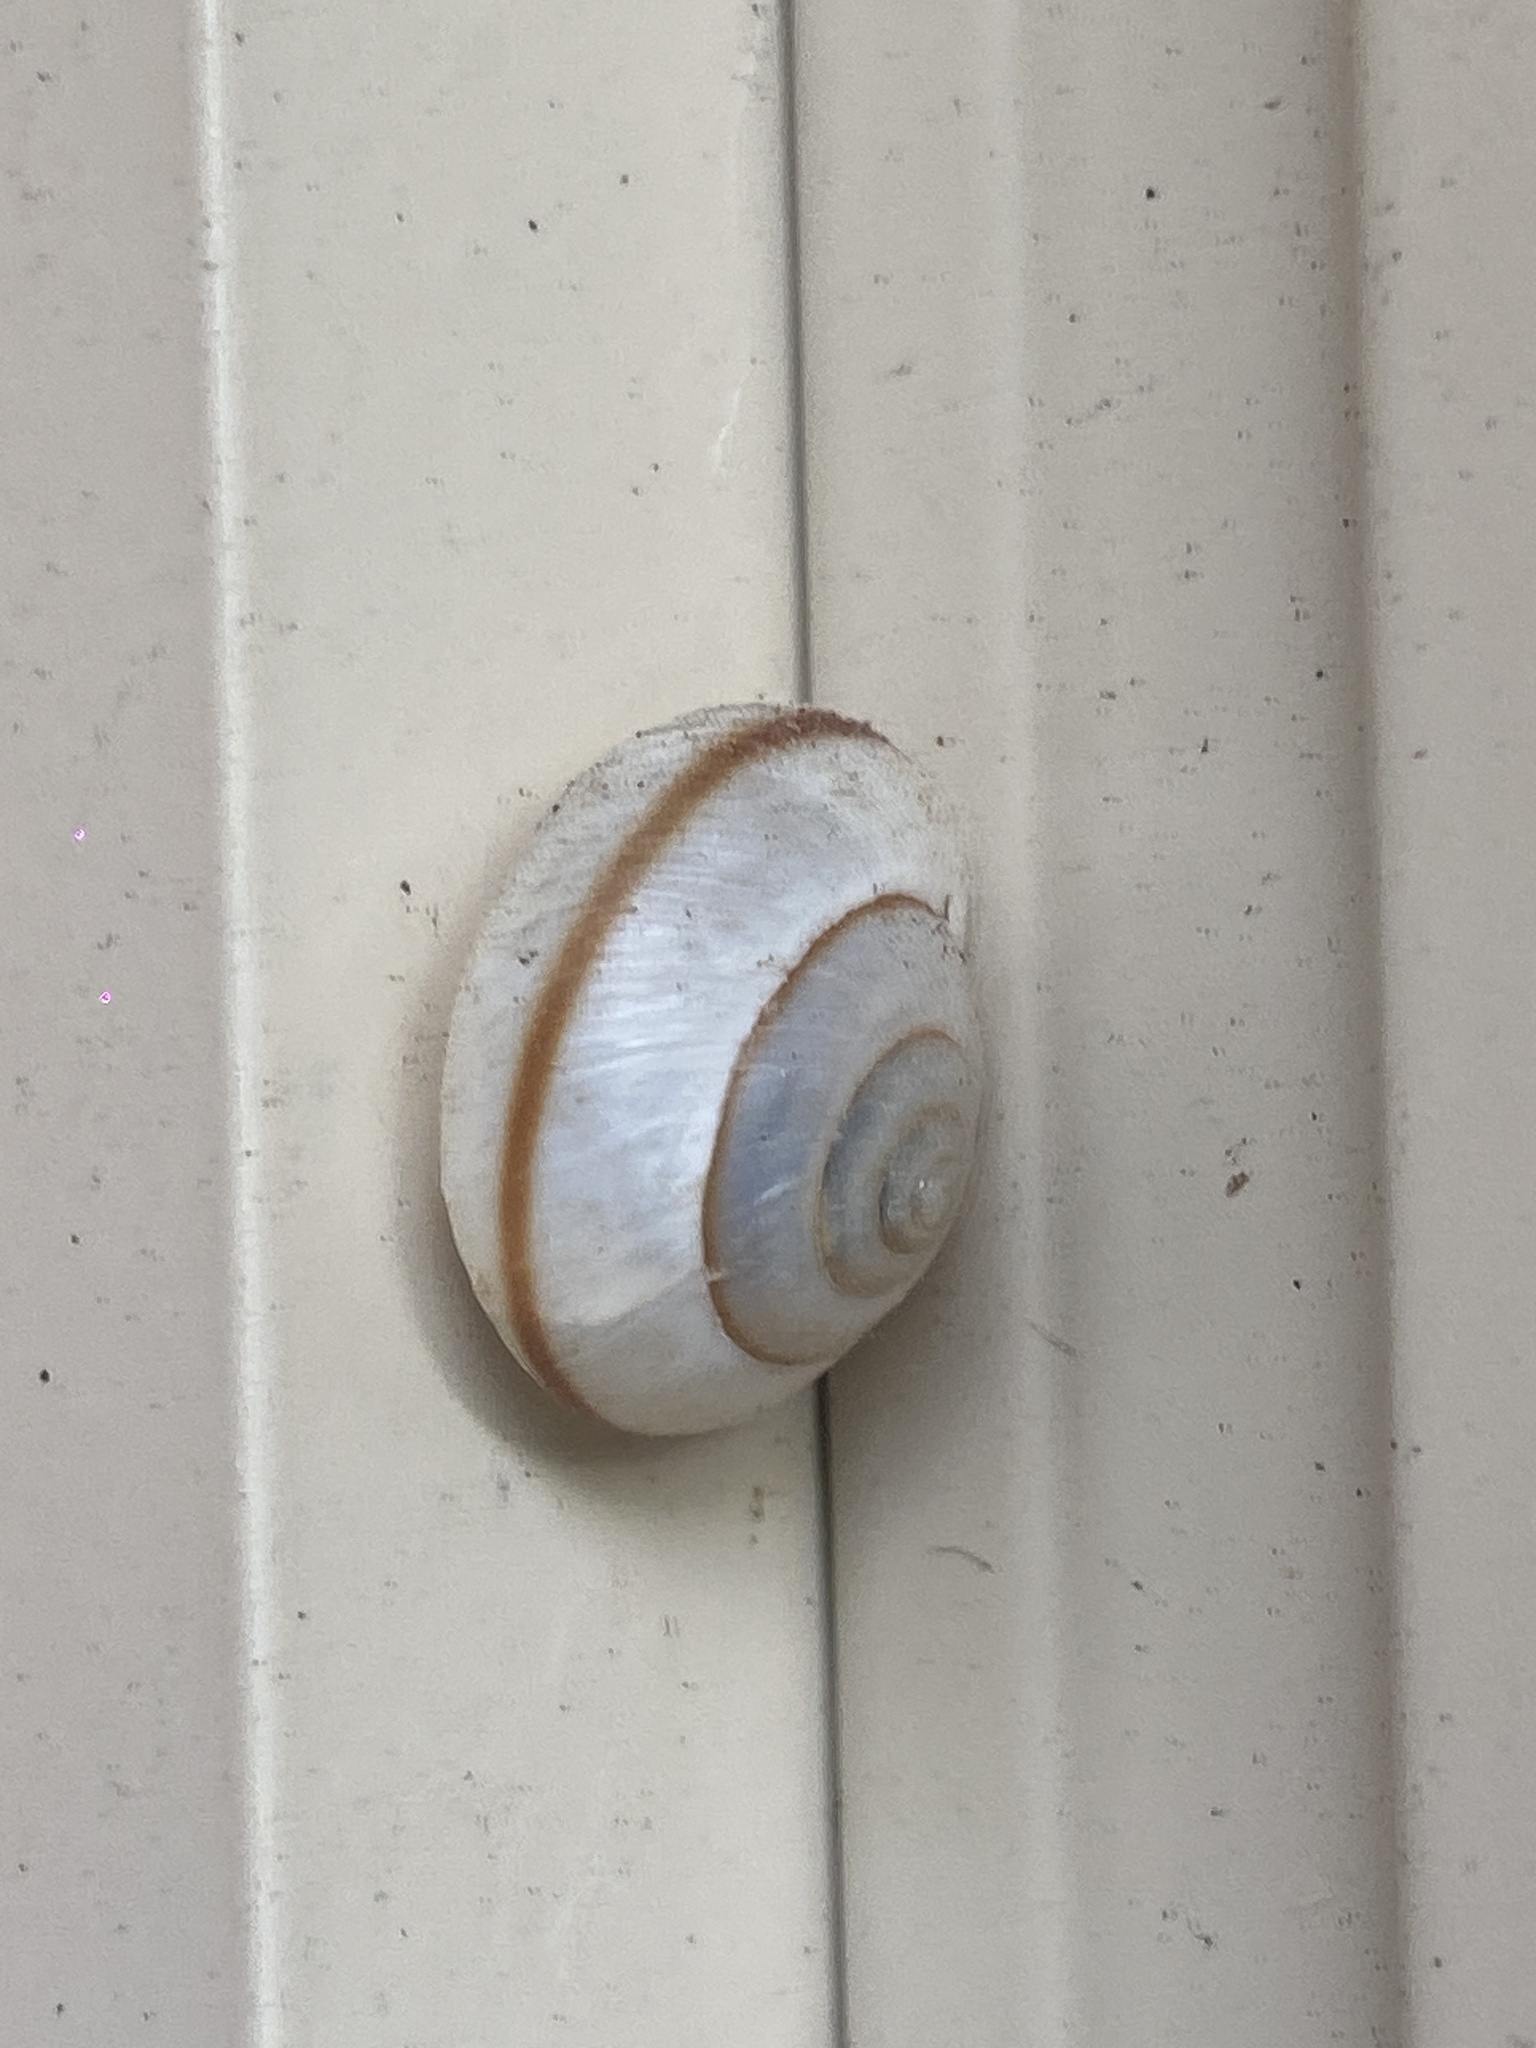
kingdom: Animalia
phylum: Mollusca
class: Gastropoda
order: Stylommatophora
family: Camaenidae
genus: Bradybaena
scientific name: Bradybaena similaris
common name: Asian trampsnail
